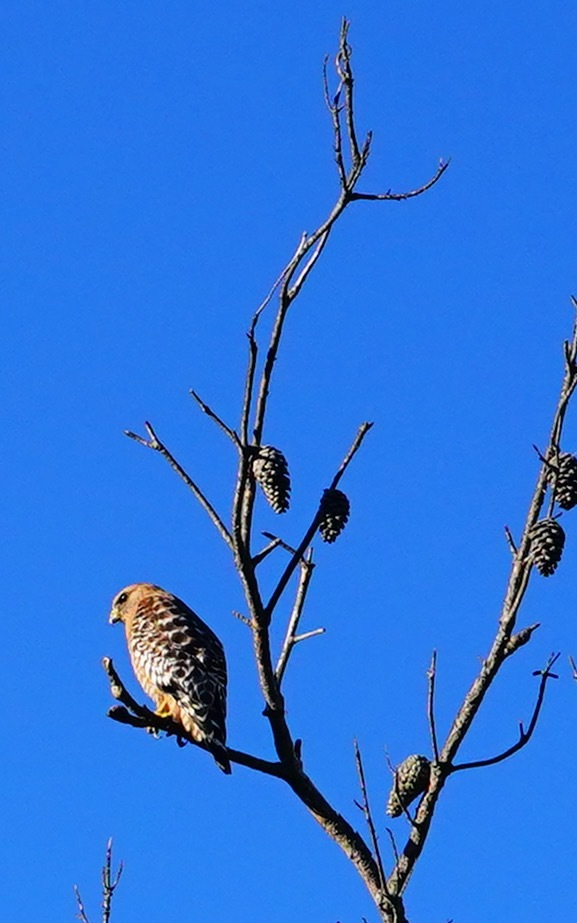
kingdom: Animalia
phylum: Chordata
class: Aves
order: Accipitriformes
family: Accipitridae
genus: Buteo
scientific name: Buteo lineatus
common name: Red-shouldered hawk
